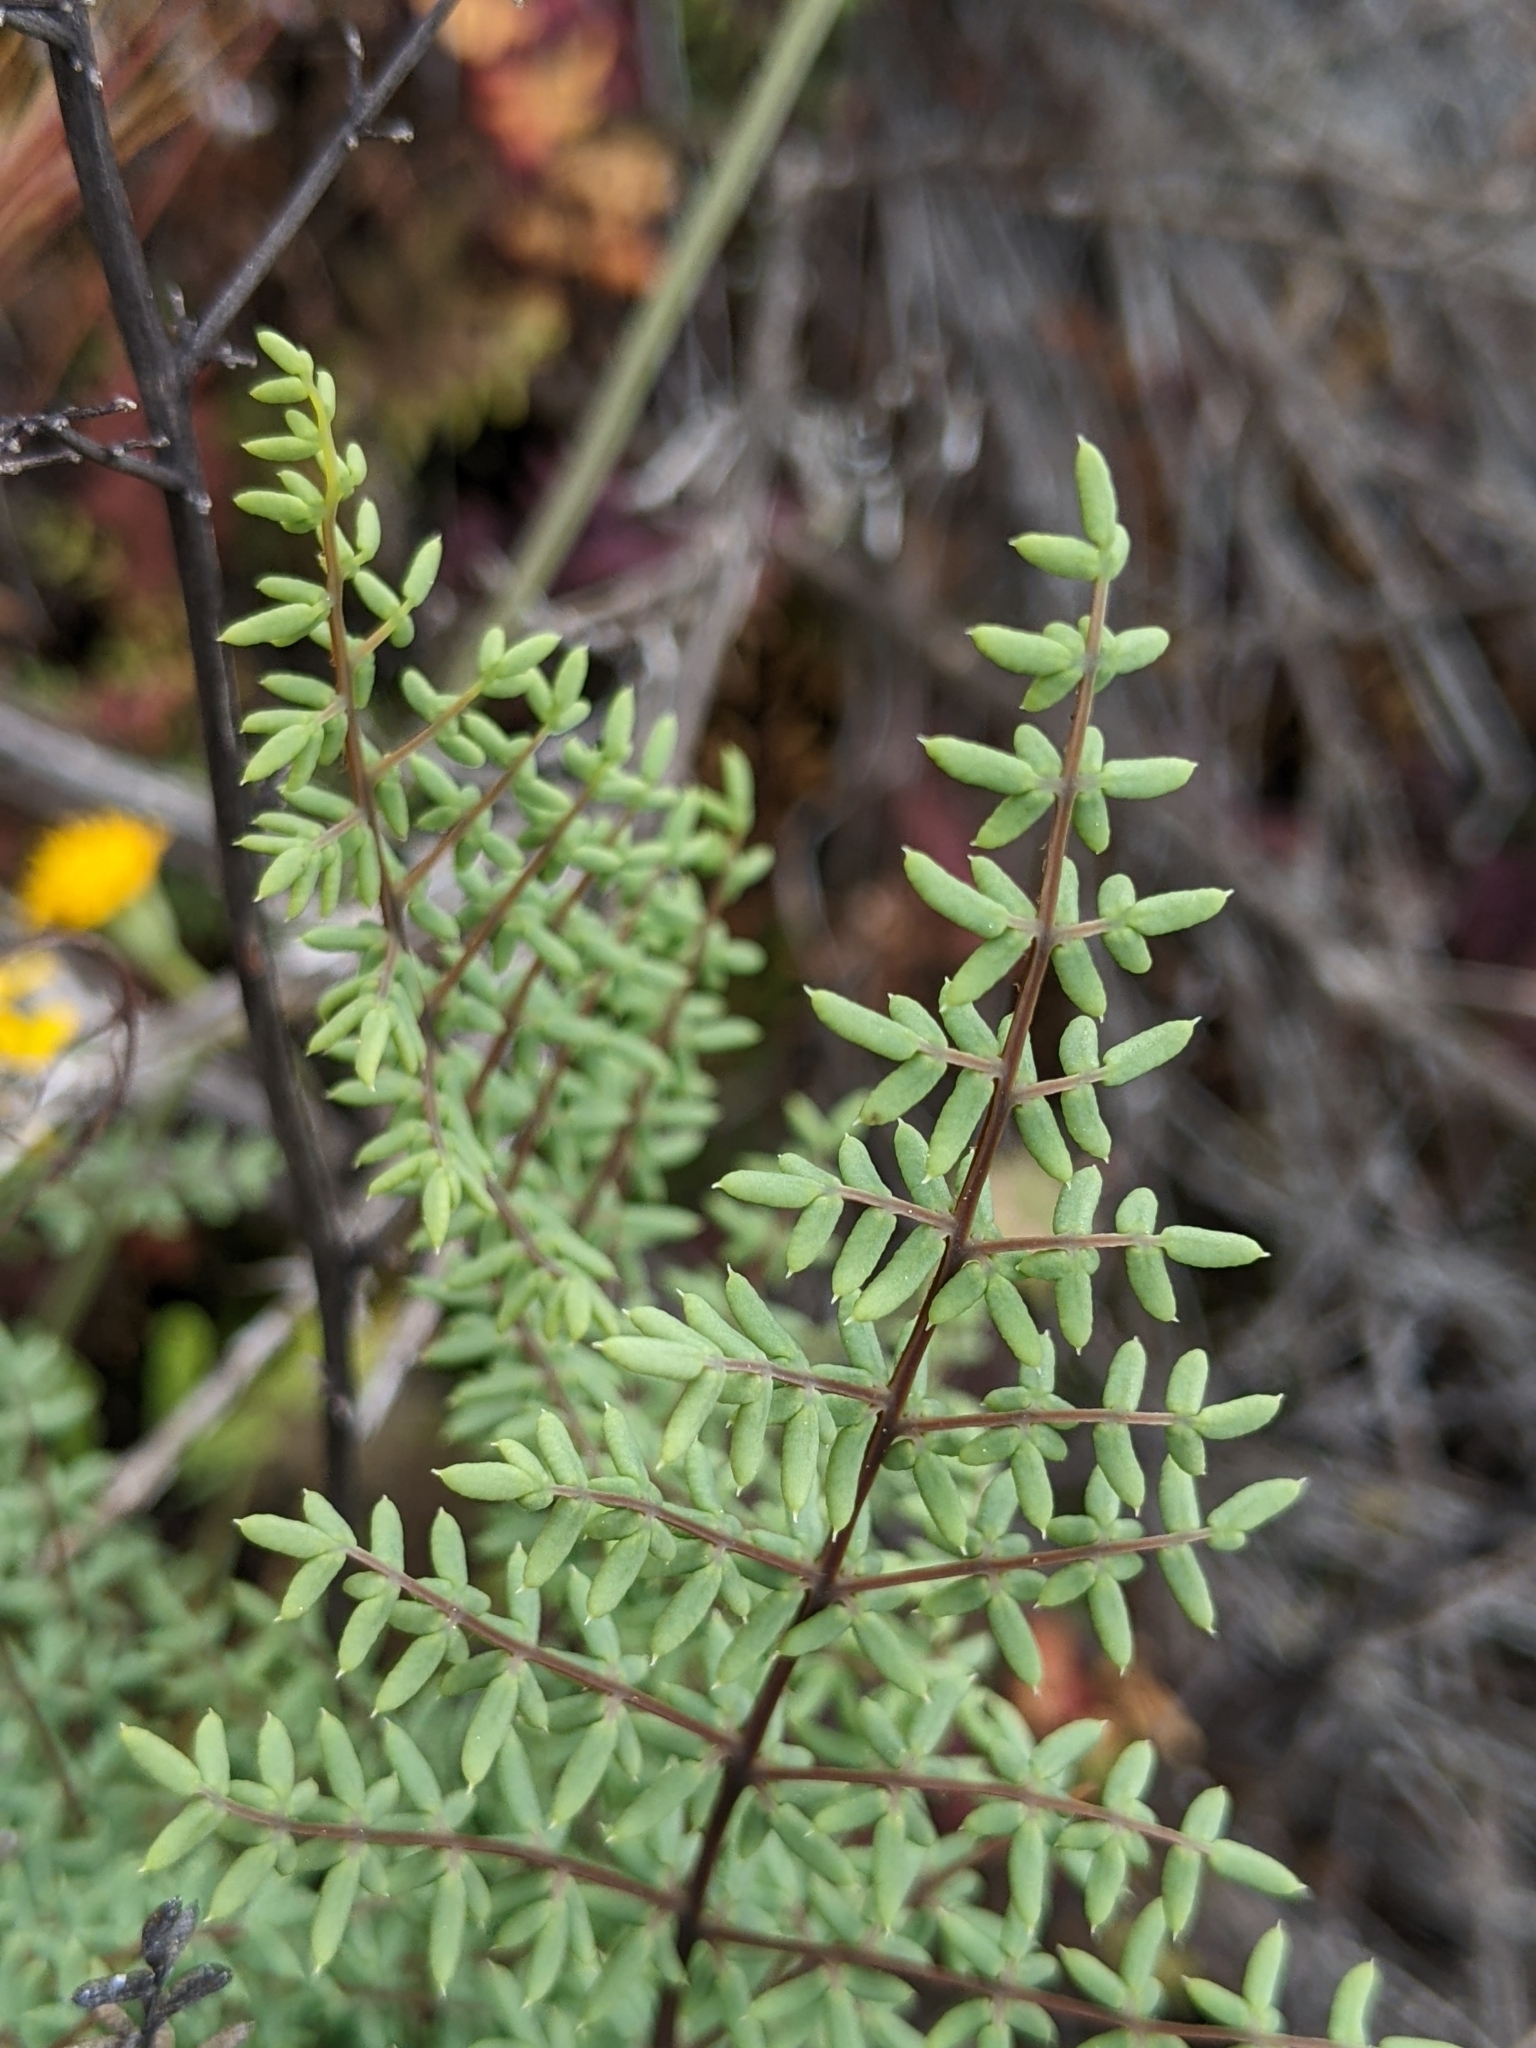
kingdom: Plantae
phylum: Tracheophyta
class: Polypodiopsida
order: Polypodiales
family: Pteridaceae
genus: Pellaea
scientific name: Pellaea mucronata
